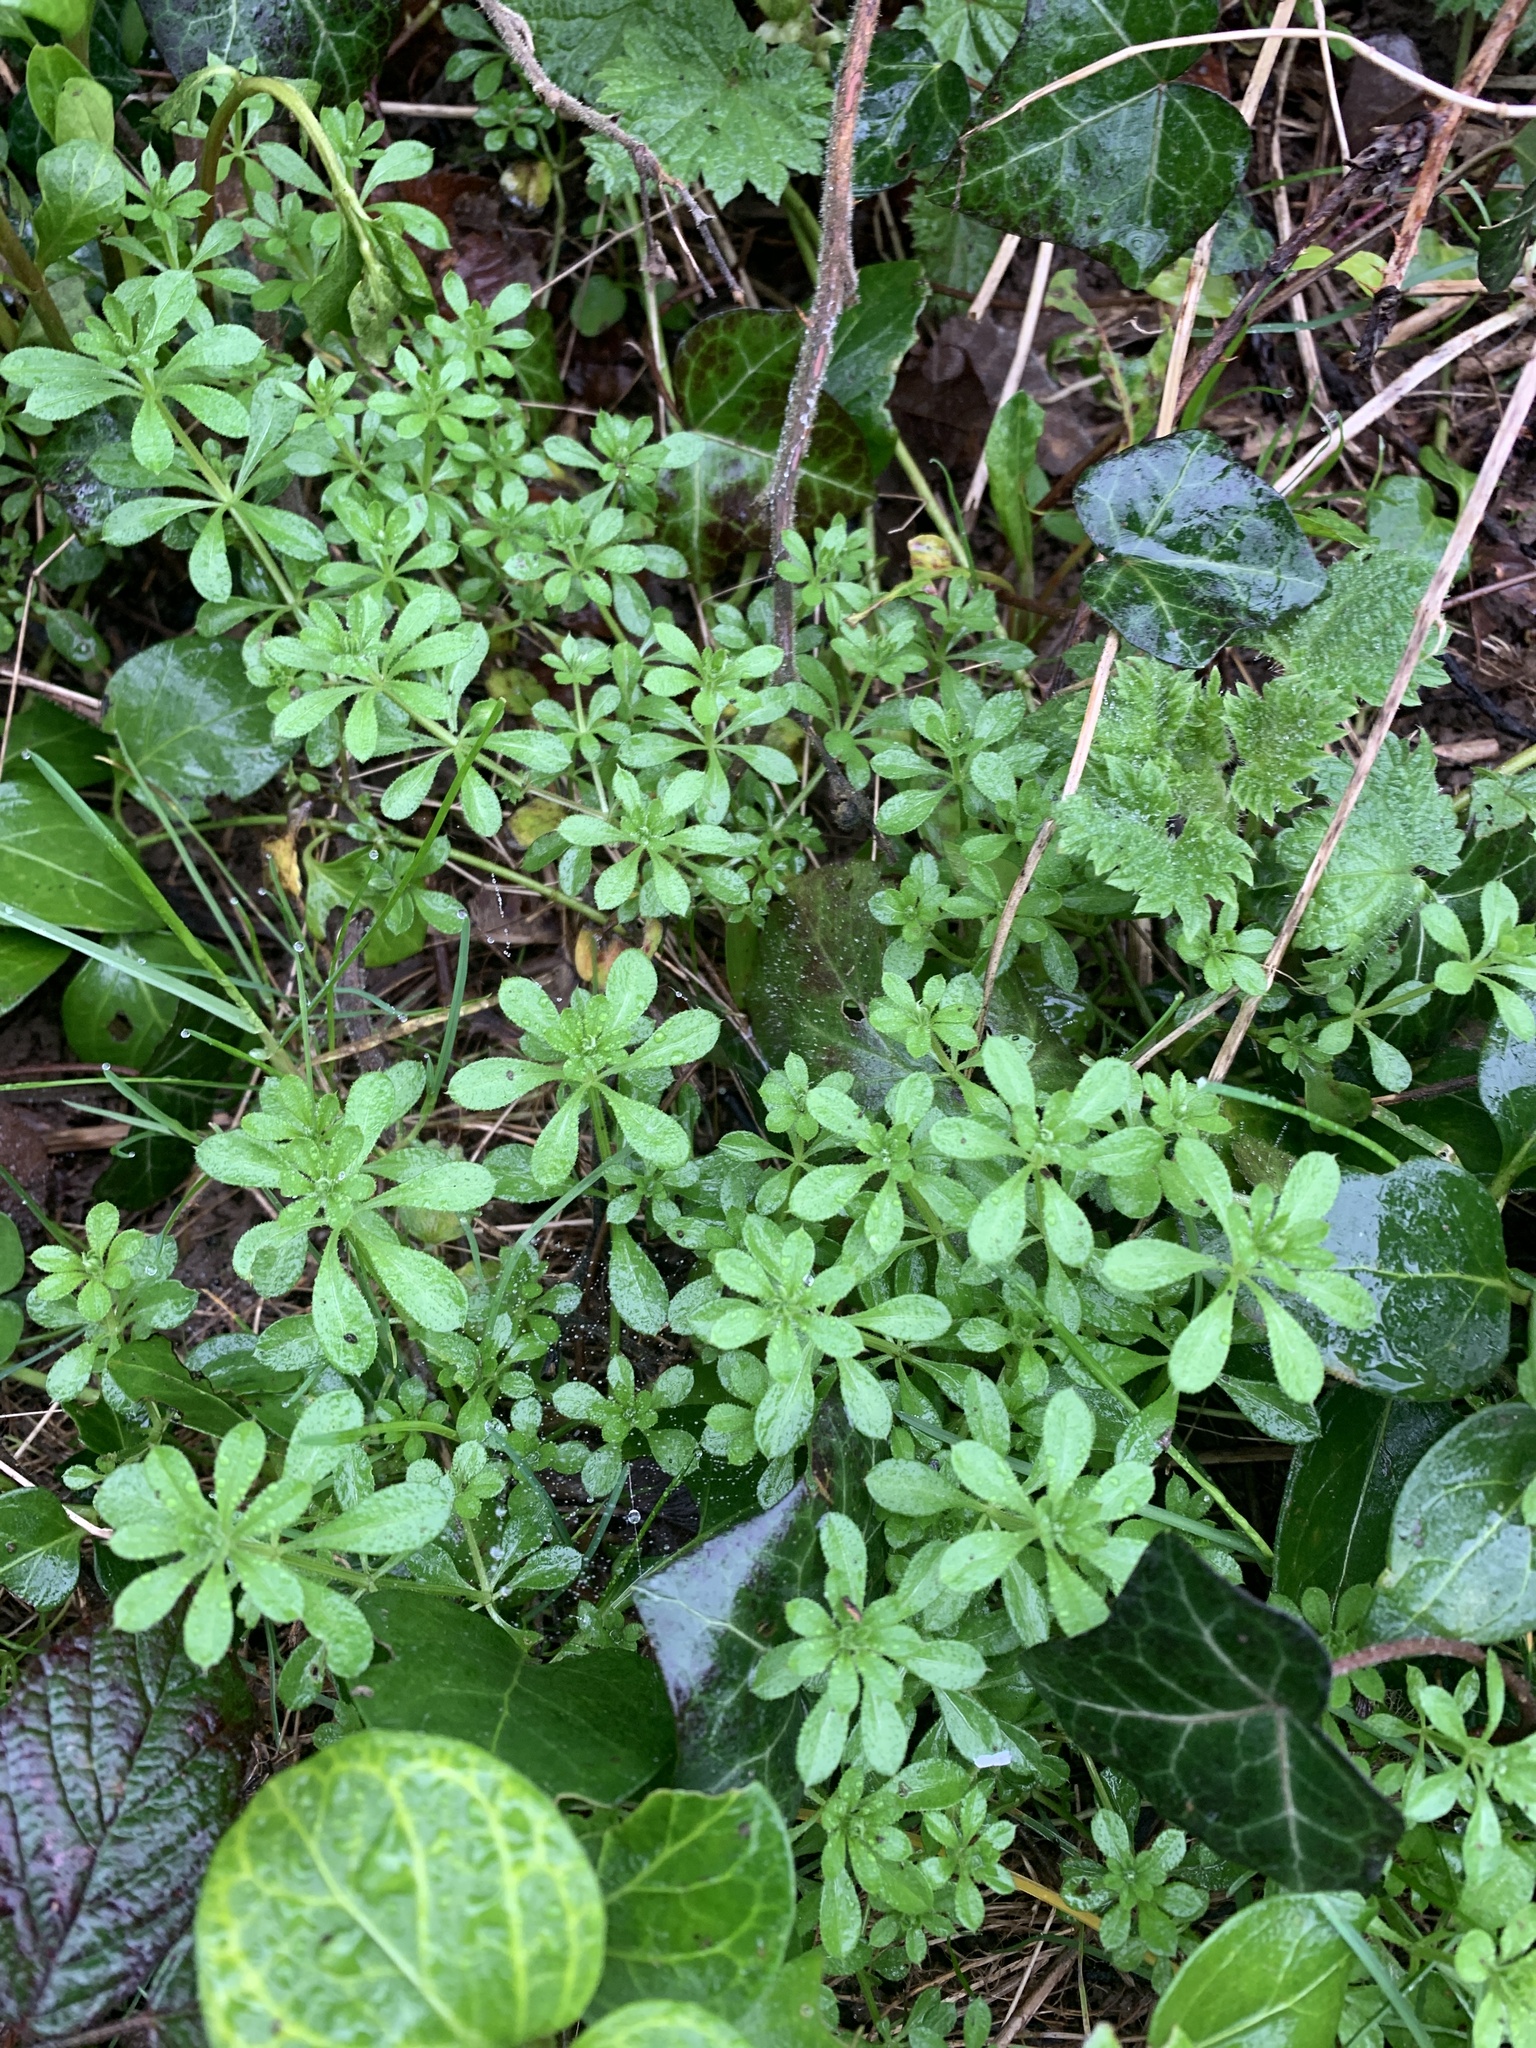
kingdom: Plantae
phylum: Tracheophyta
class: Magnoliopsida
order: Gentianales
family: Rubiaceae
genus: Galium
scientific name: Galium aparine
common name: Cleavers
